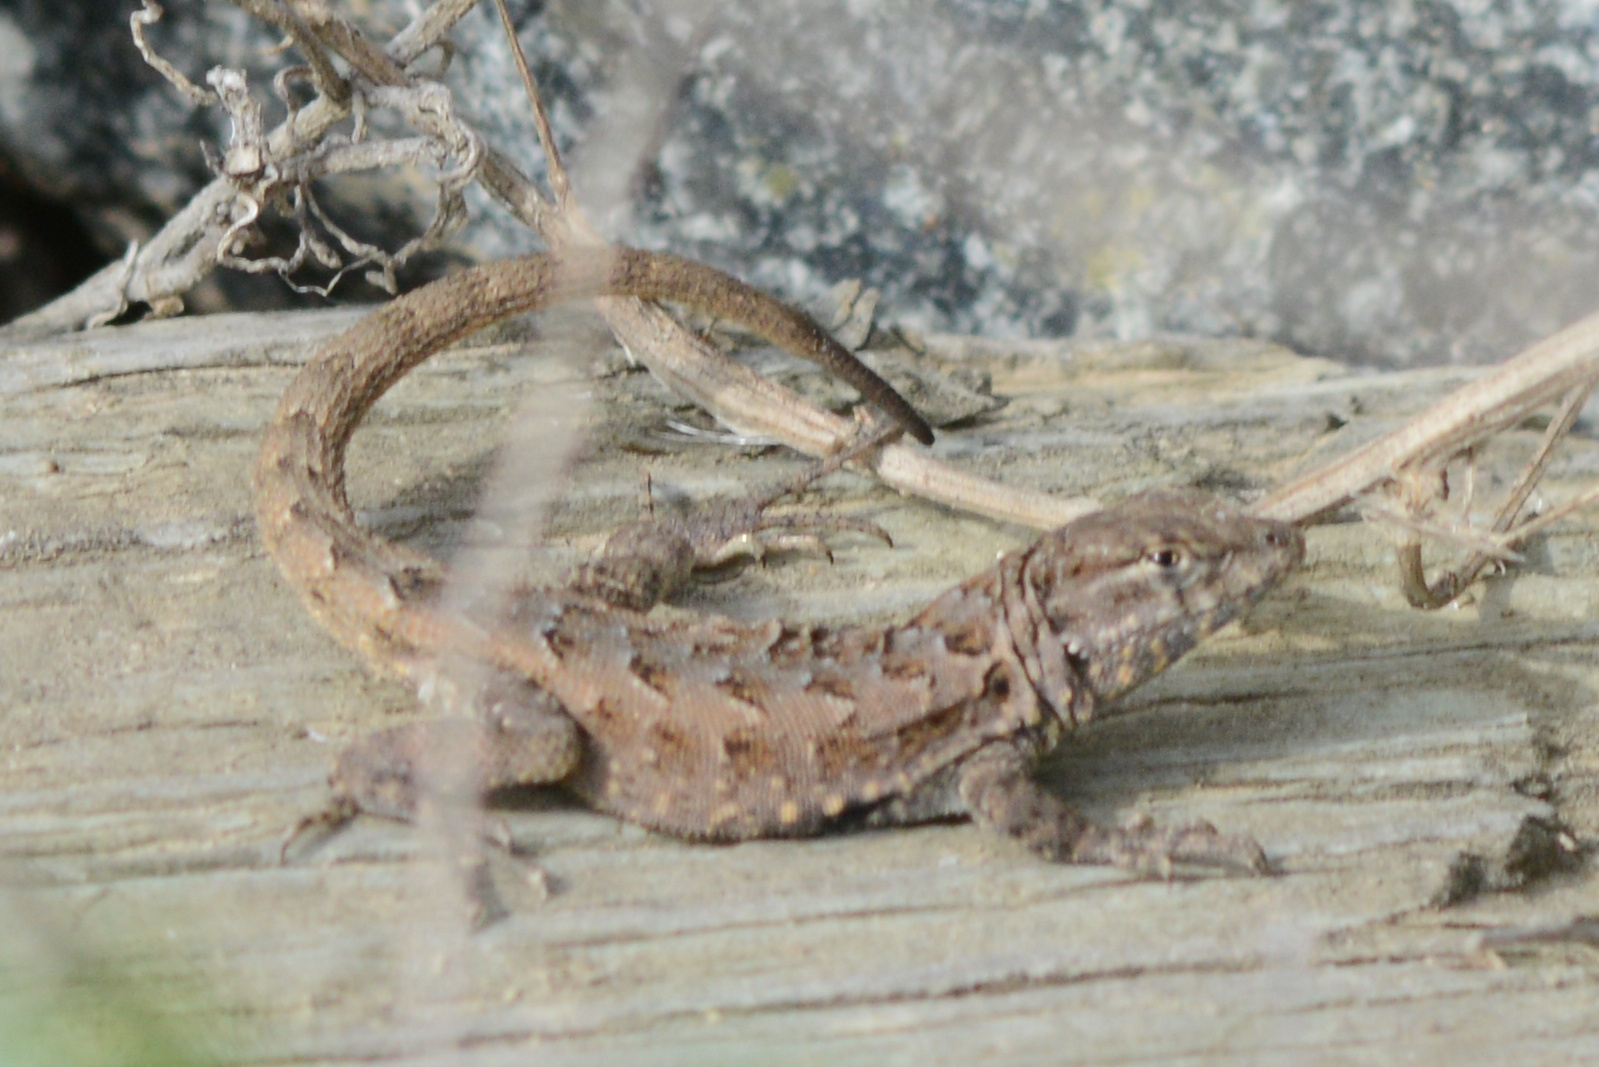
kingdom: Animalia
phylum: Chordata
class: Squamata
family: Phrynosomatidae
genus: Uta
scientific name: Uta stansburiana
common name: Side-blotched lizard
